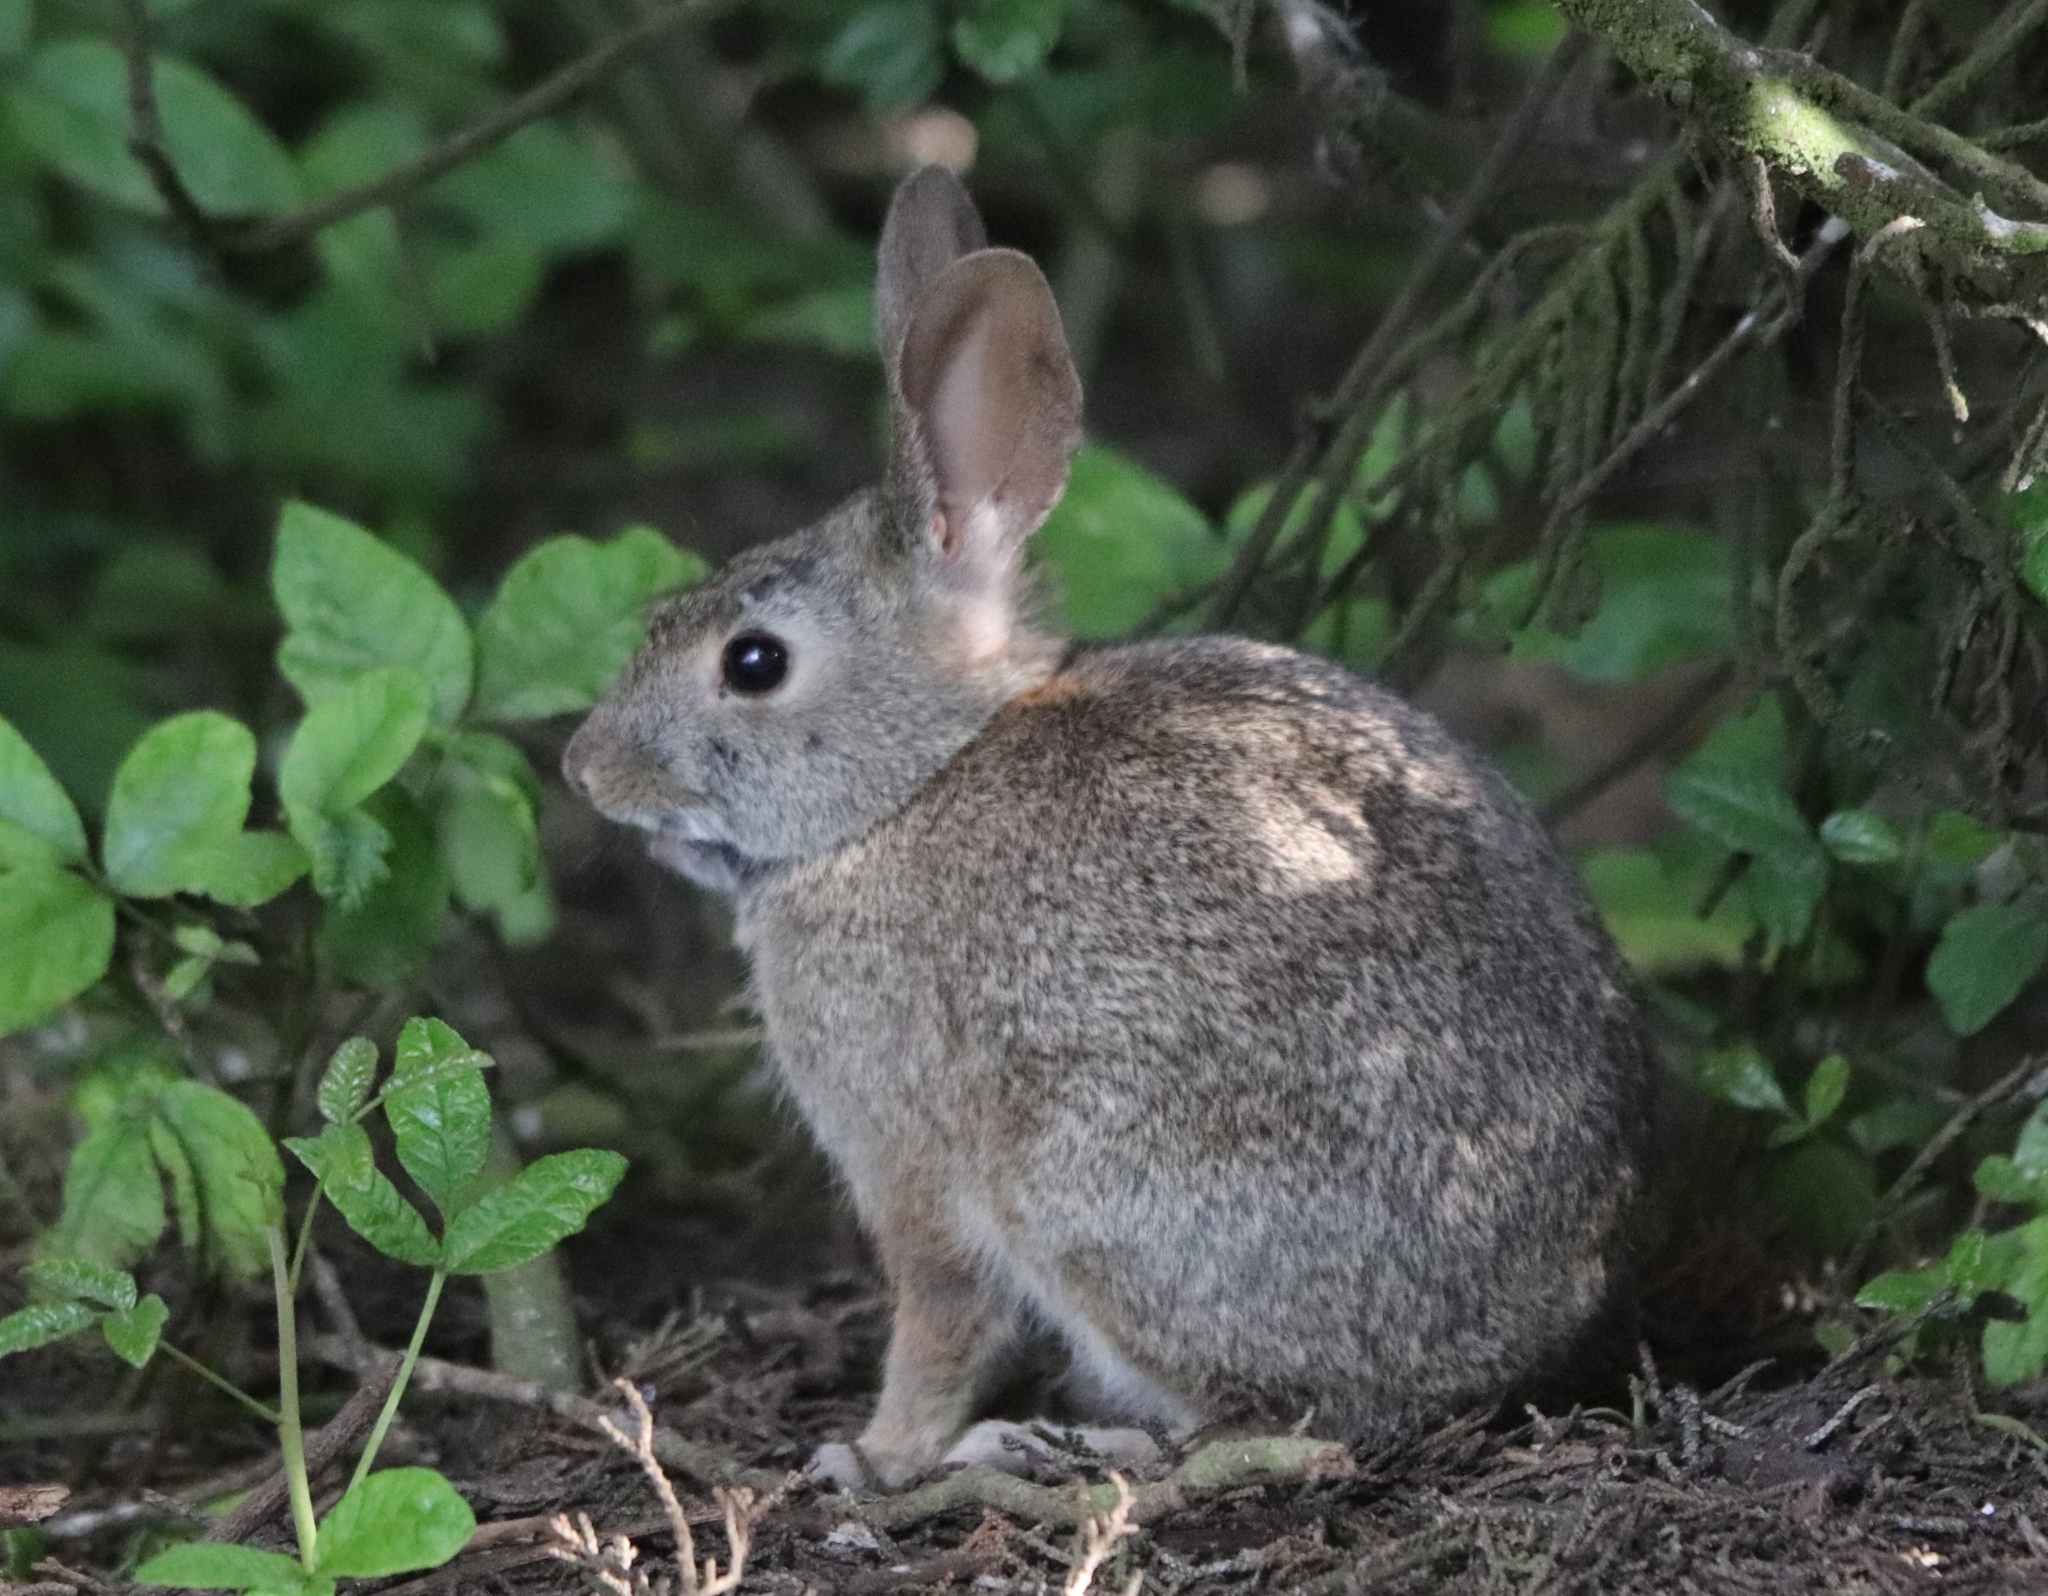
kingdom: Animalia
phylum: Chordata
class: Mammalia
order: Lagomorpha
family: Leporidae
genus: Sylvilagus
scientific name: Sylvilagus bachmani
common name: Brush rabbit
